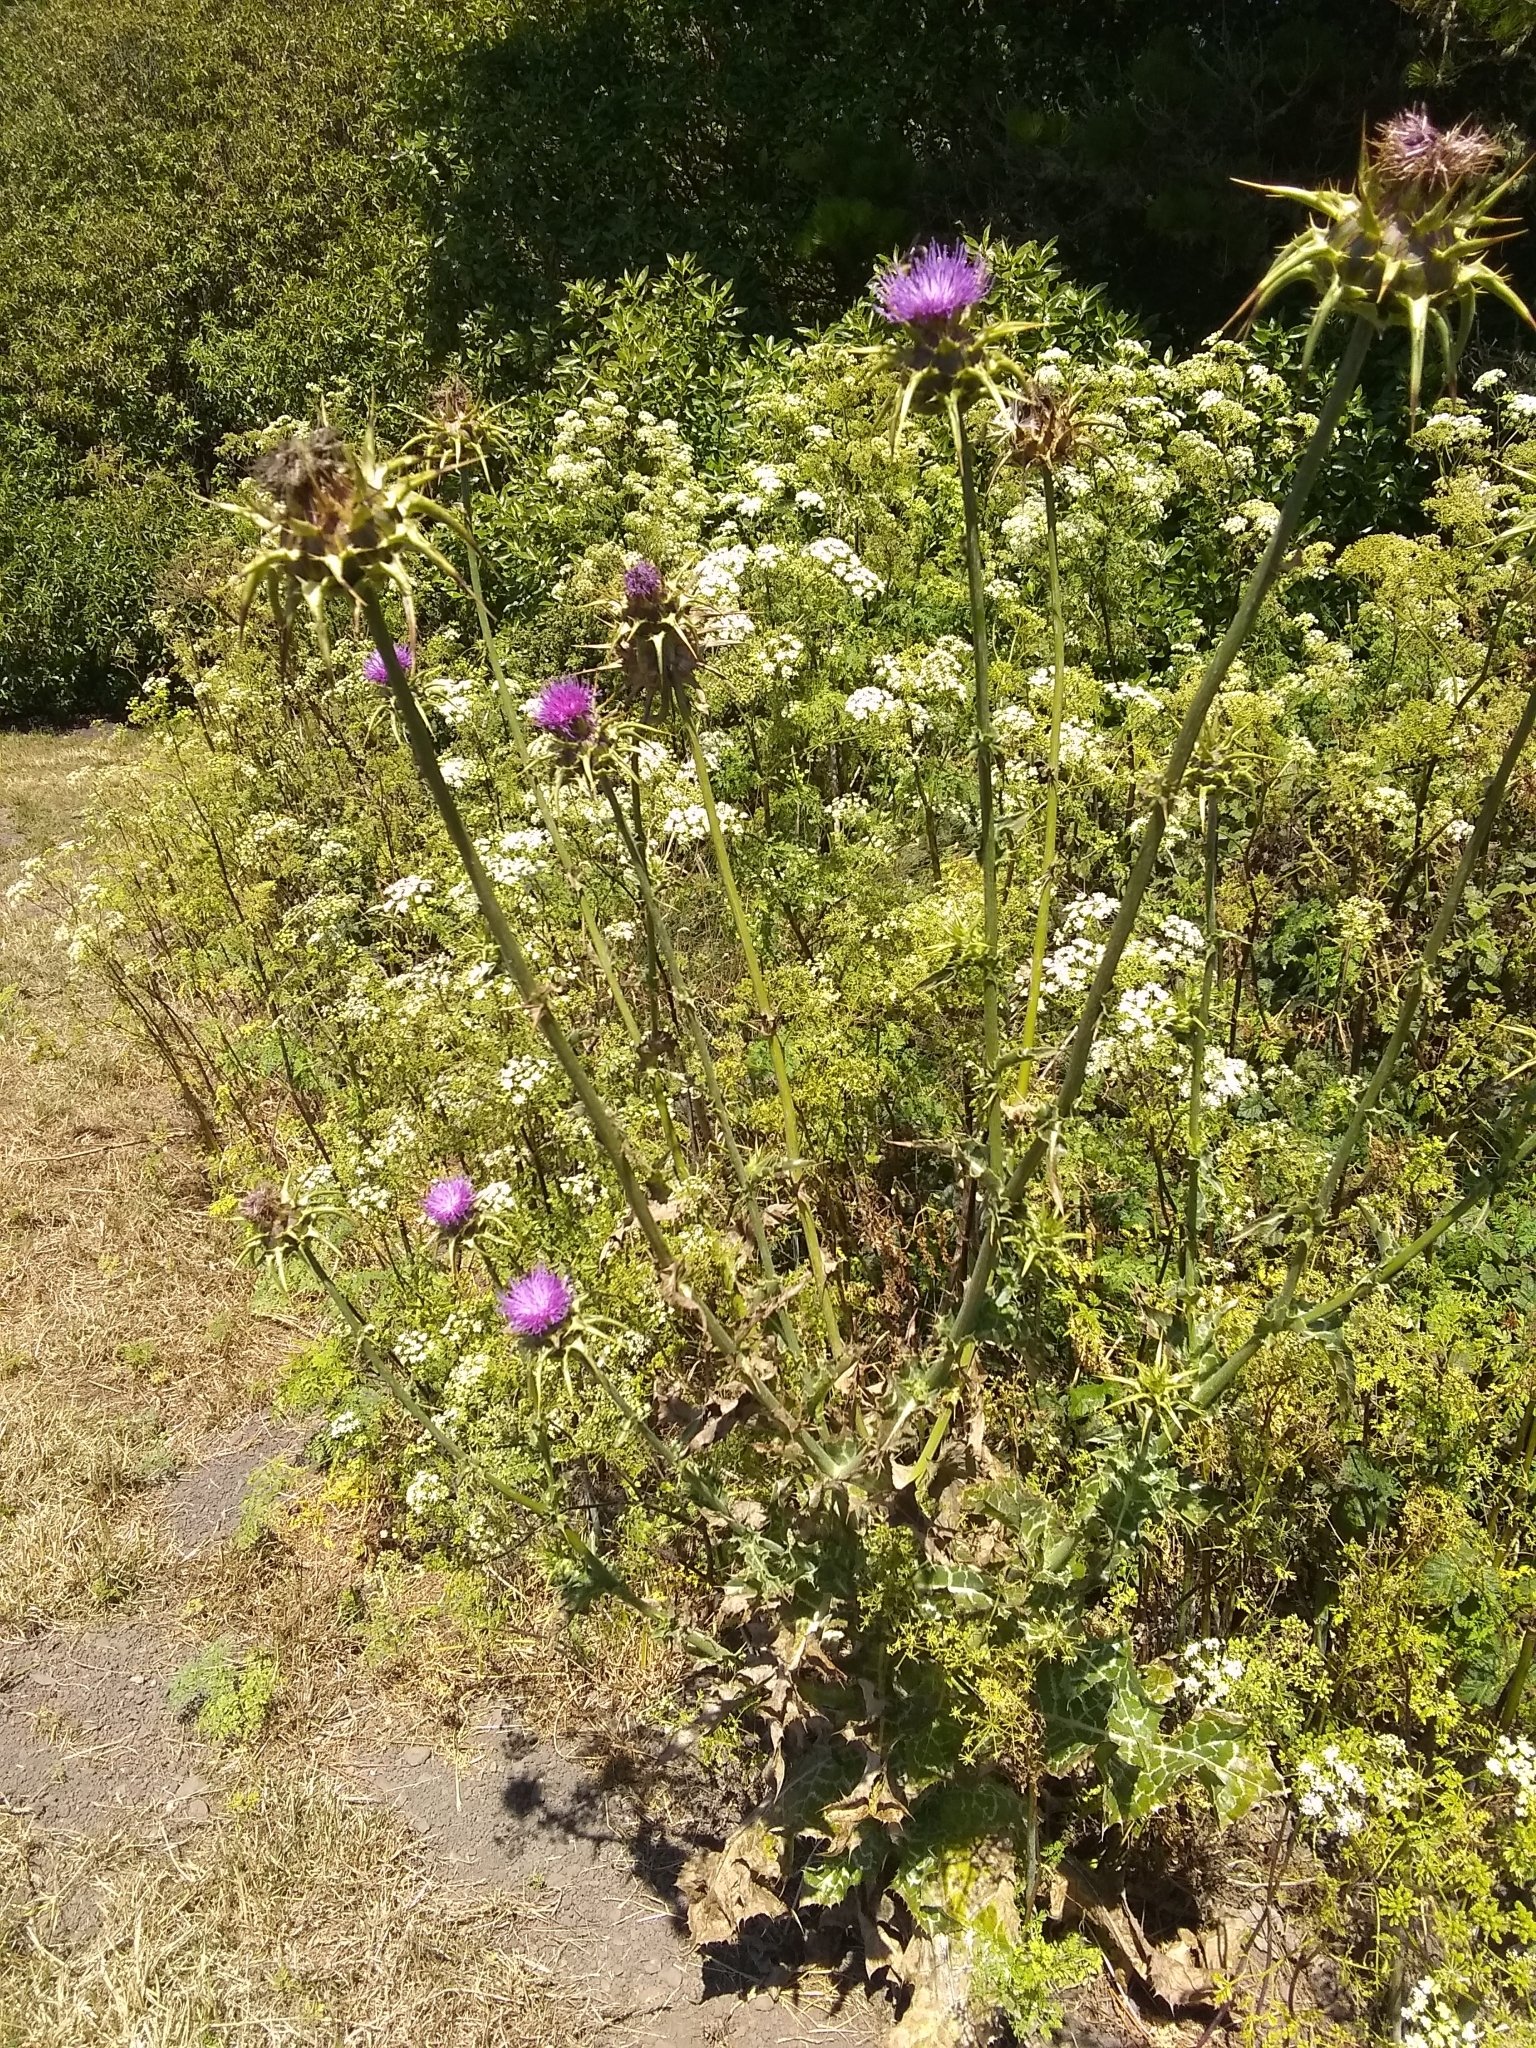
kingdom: Plantae
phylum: Tracheophyta
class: Magnoliopsida
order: Asterales
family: Asteraceae
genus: Silybum
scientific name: Silybum marianum
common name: Milk thistle
